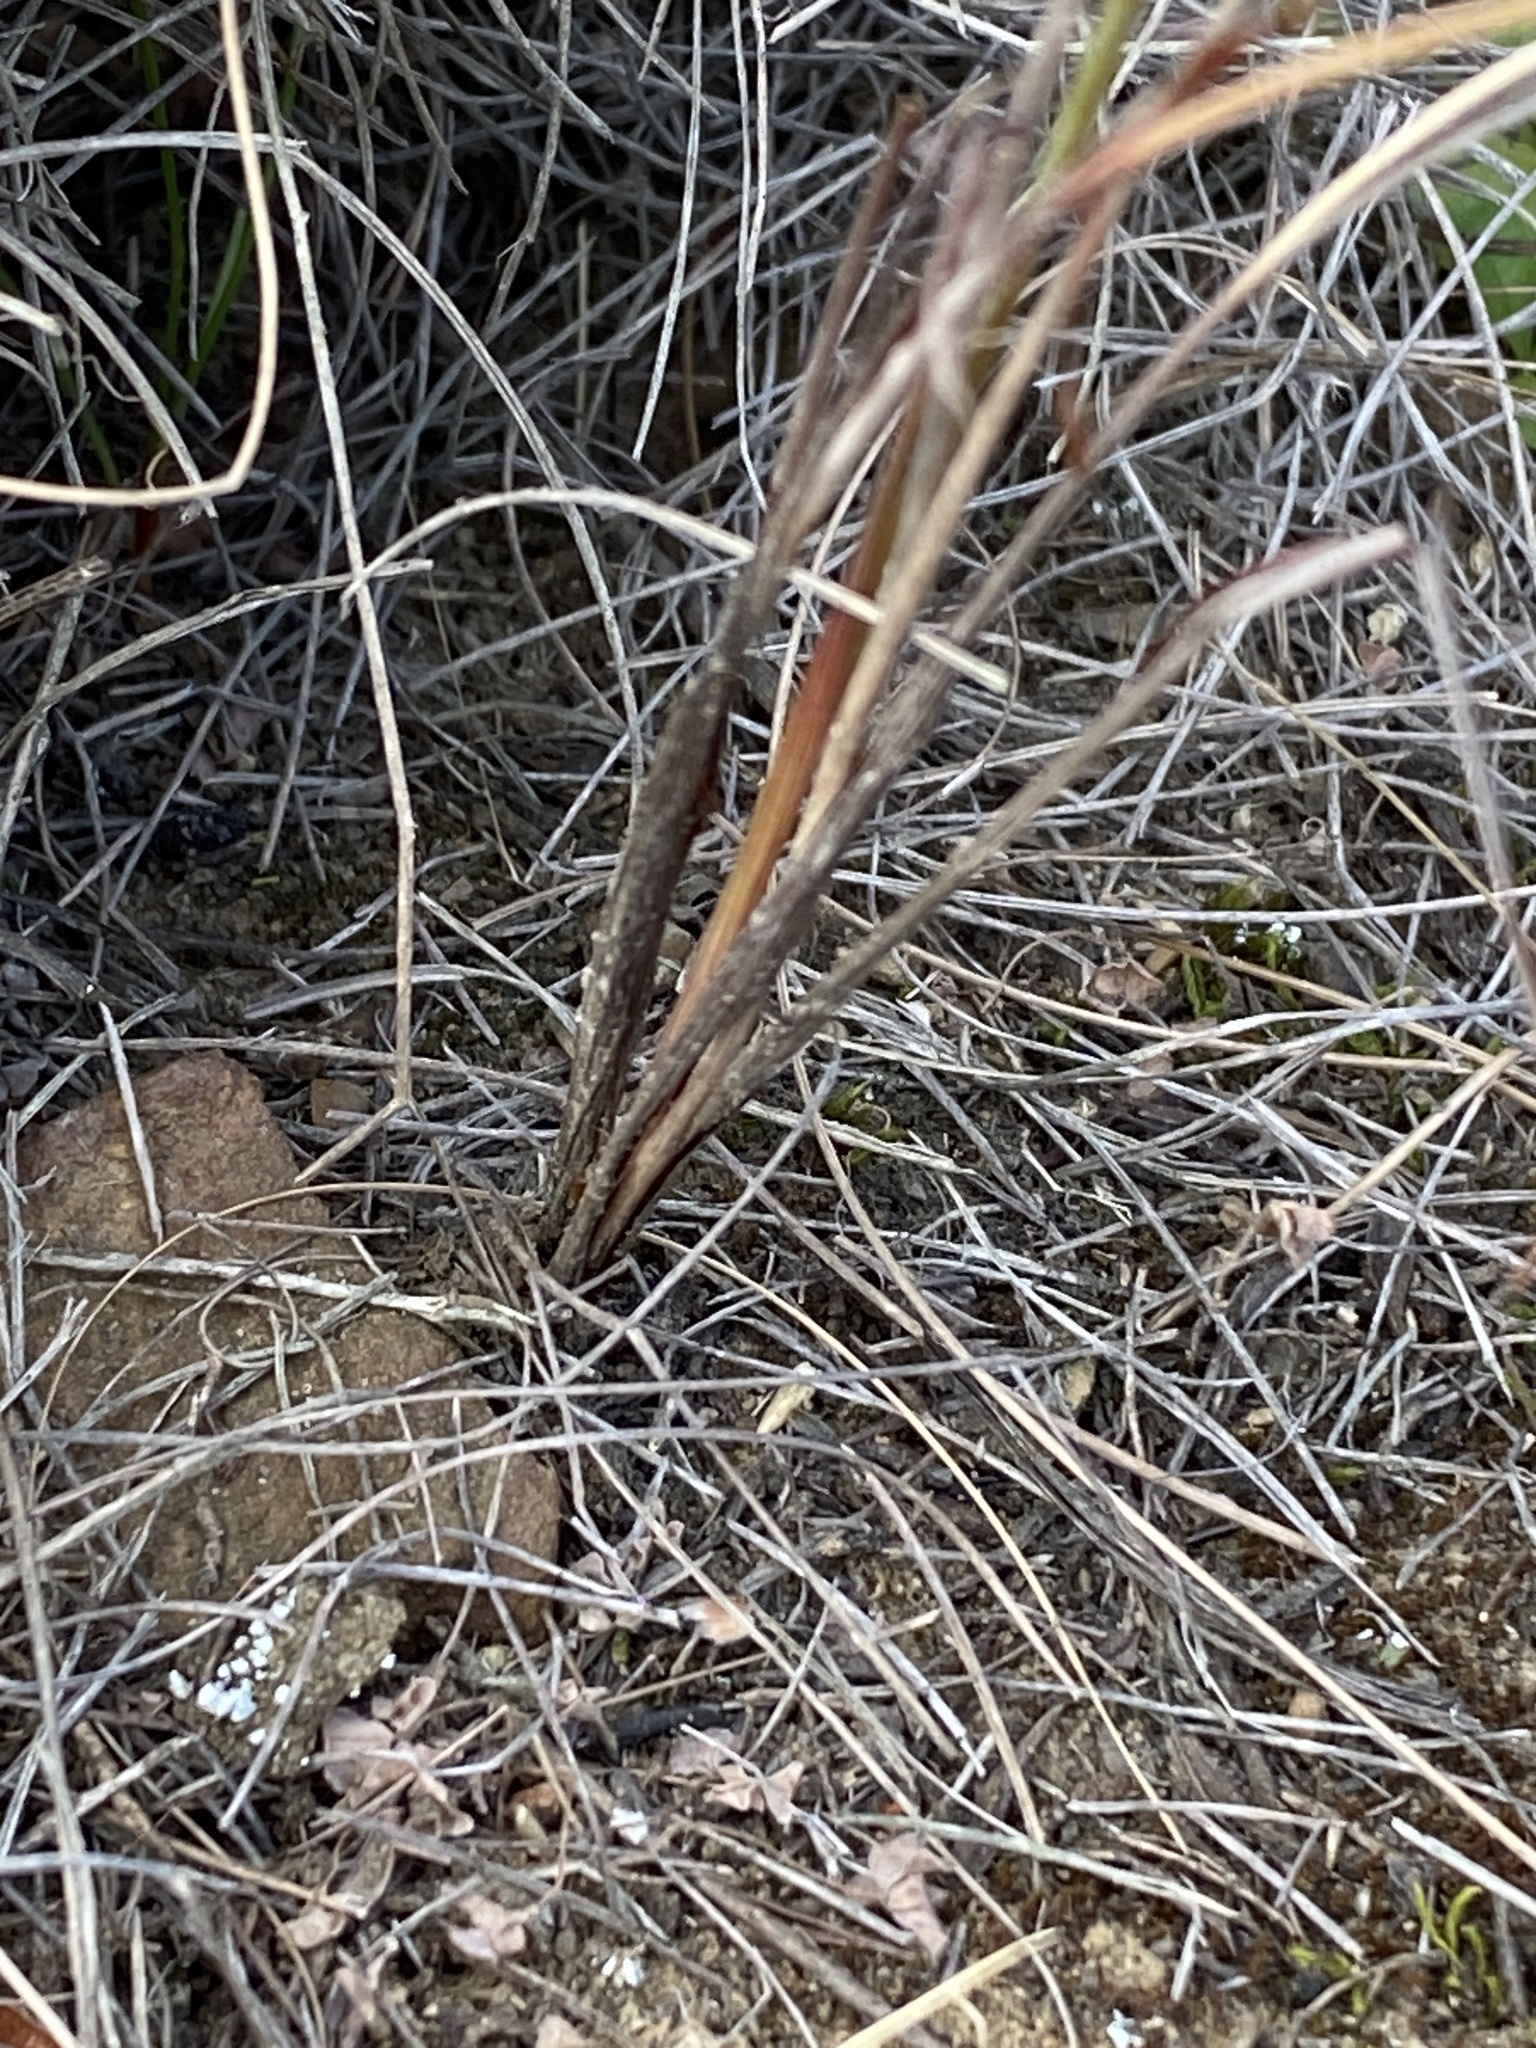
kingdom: Plantae
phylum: Tracheophyta
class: Liliopsida
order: Asparagales
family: Iridaceae
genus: Moraea
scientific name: Moraea unguiculata
